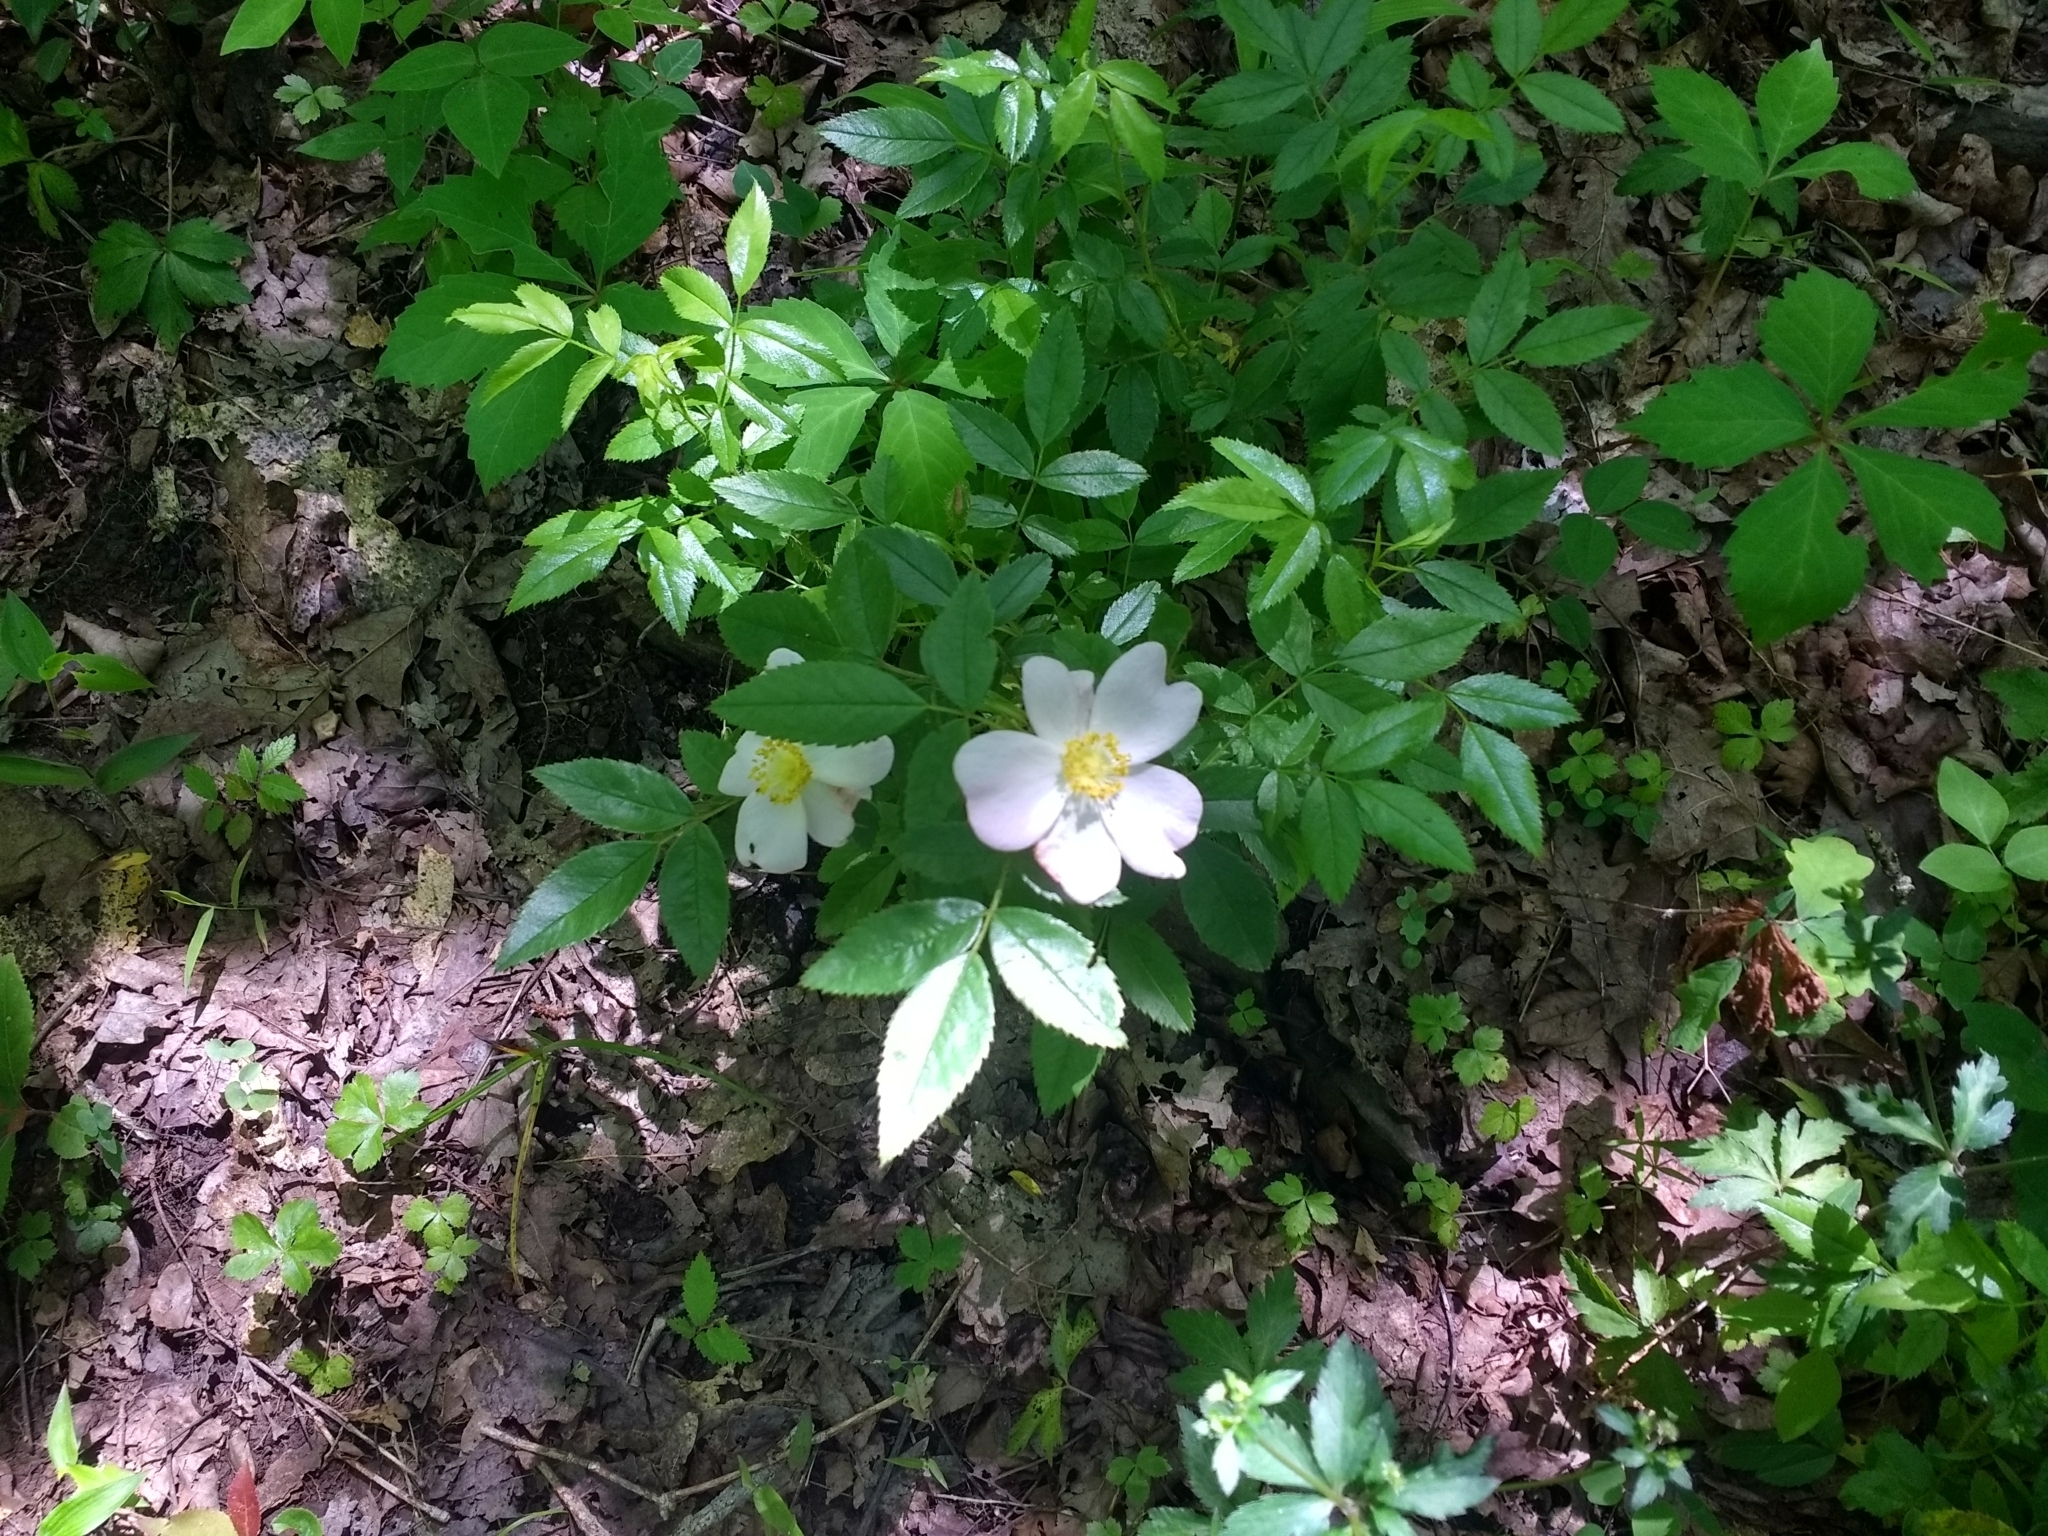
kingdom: Plantae
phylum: Tracheophyta
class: Magnoliopsida
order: Rosales
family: Rosaceae
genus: Rosa
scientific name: Rosa carolina
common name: Pasture rose
